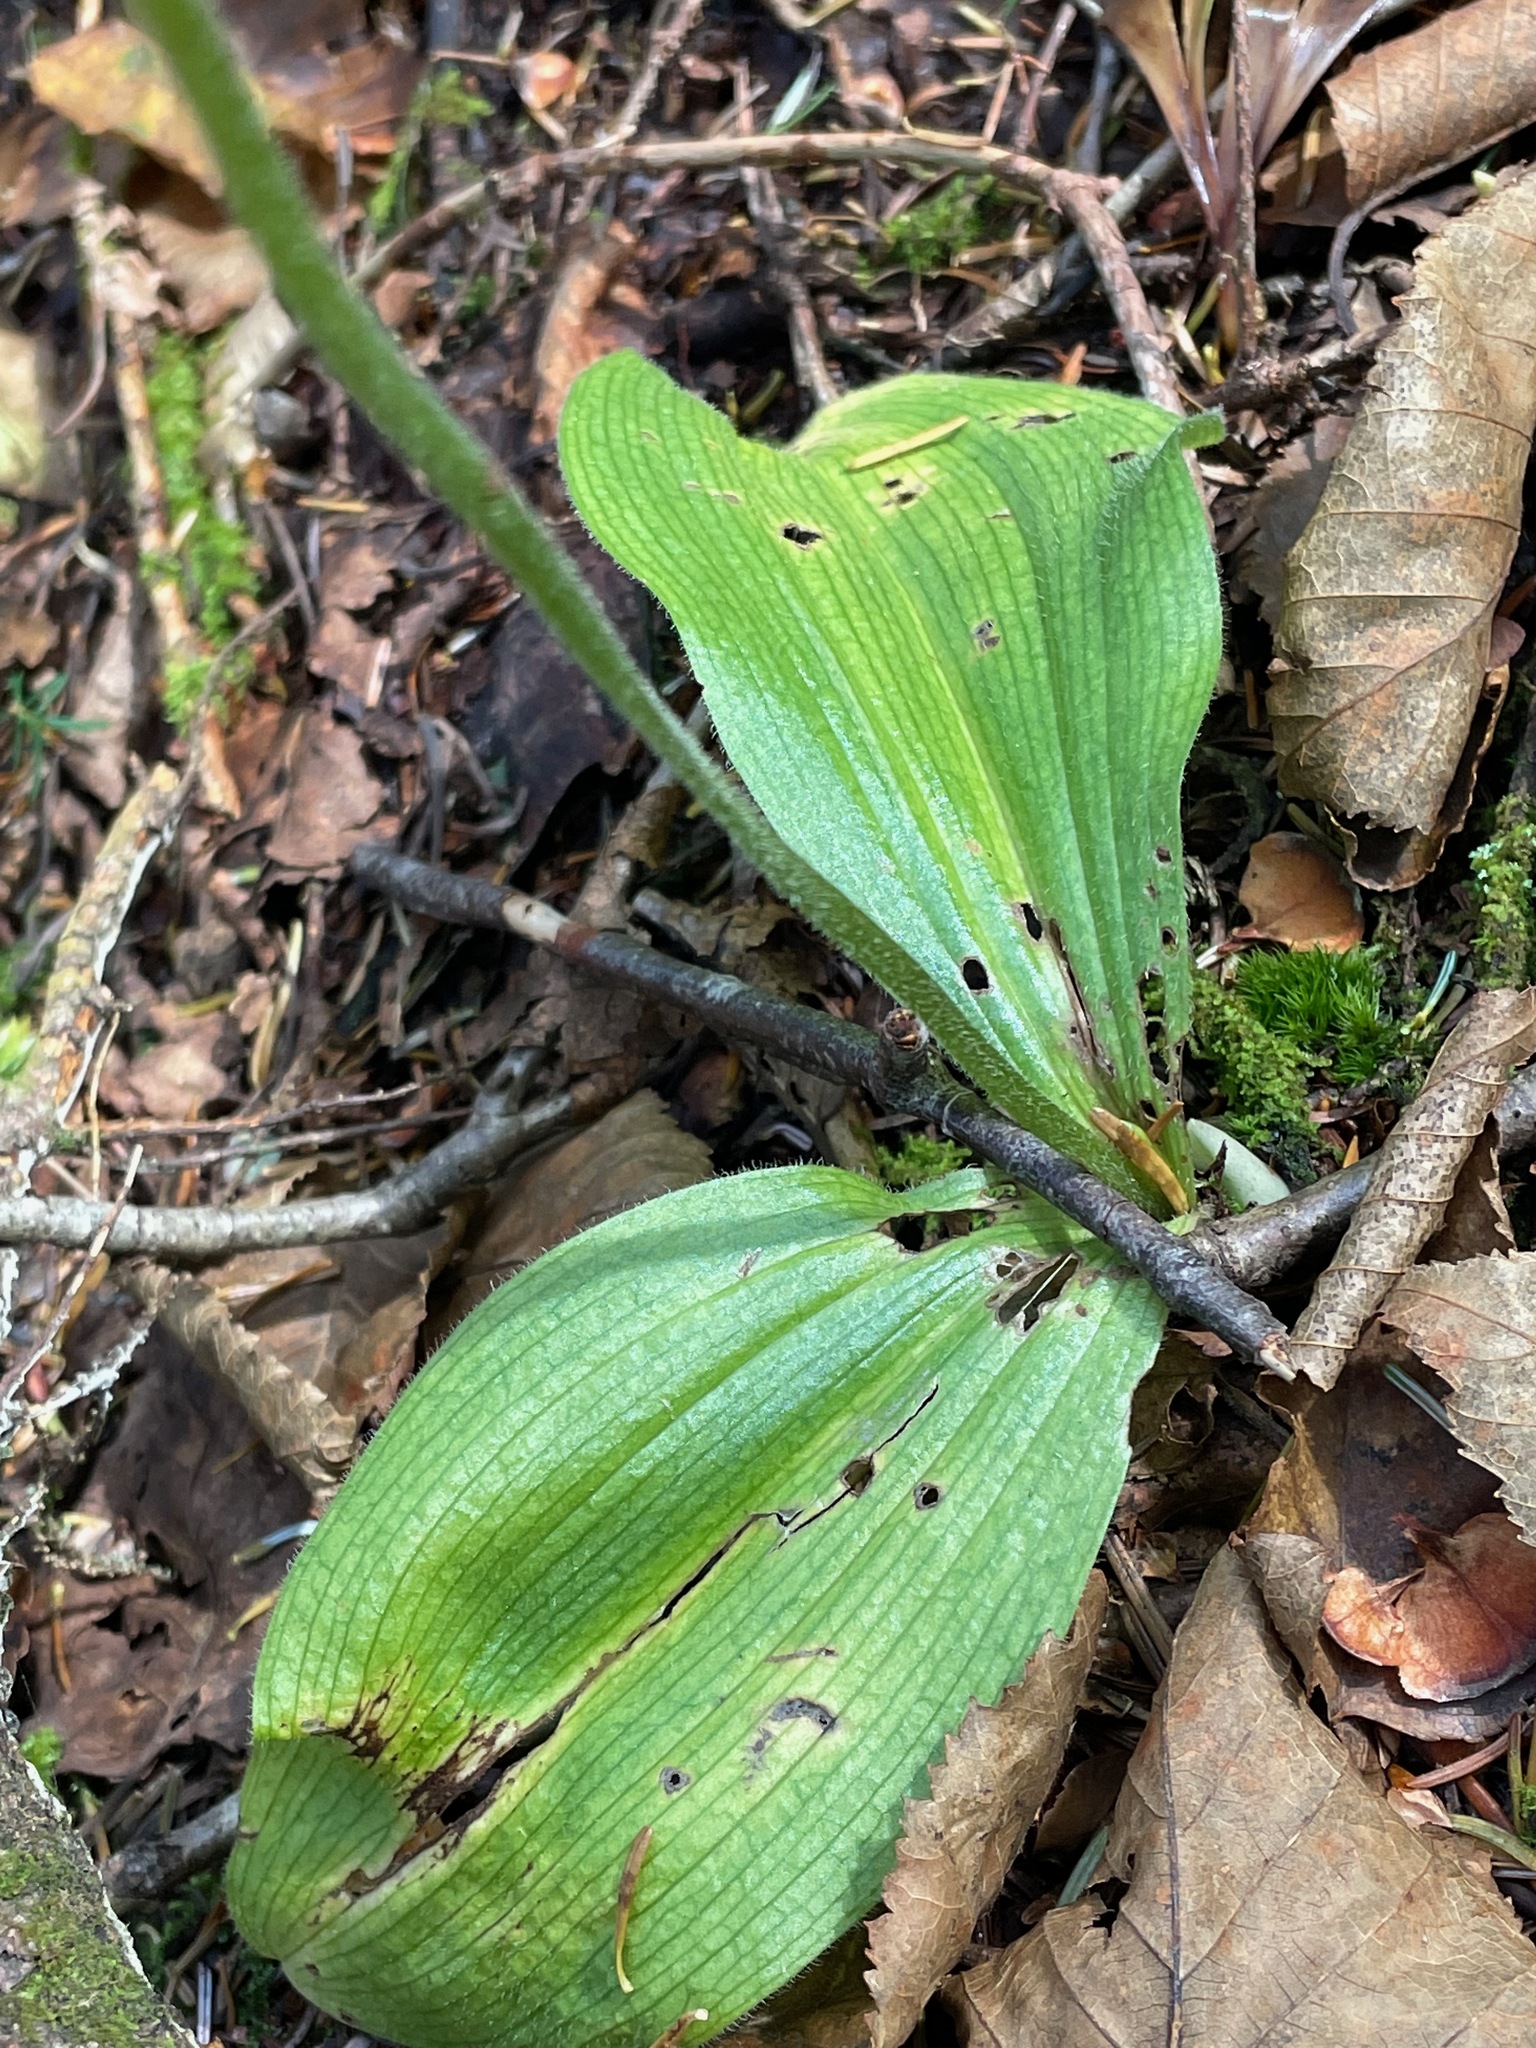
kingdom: Plantae
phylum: Tracheophyta
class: Liliopsida
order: Asparagales
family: Orchidaceae
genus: Cypripedium
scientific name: Cypripedium acaule
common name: Pink lady's-slipper
